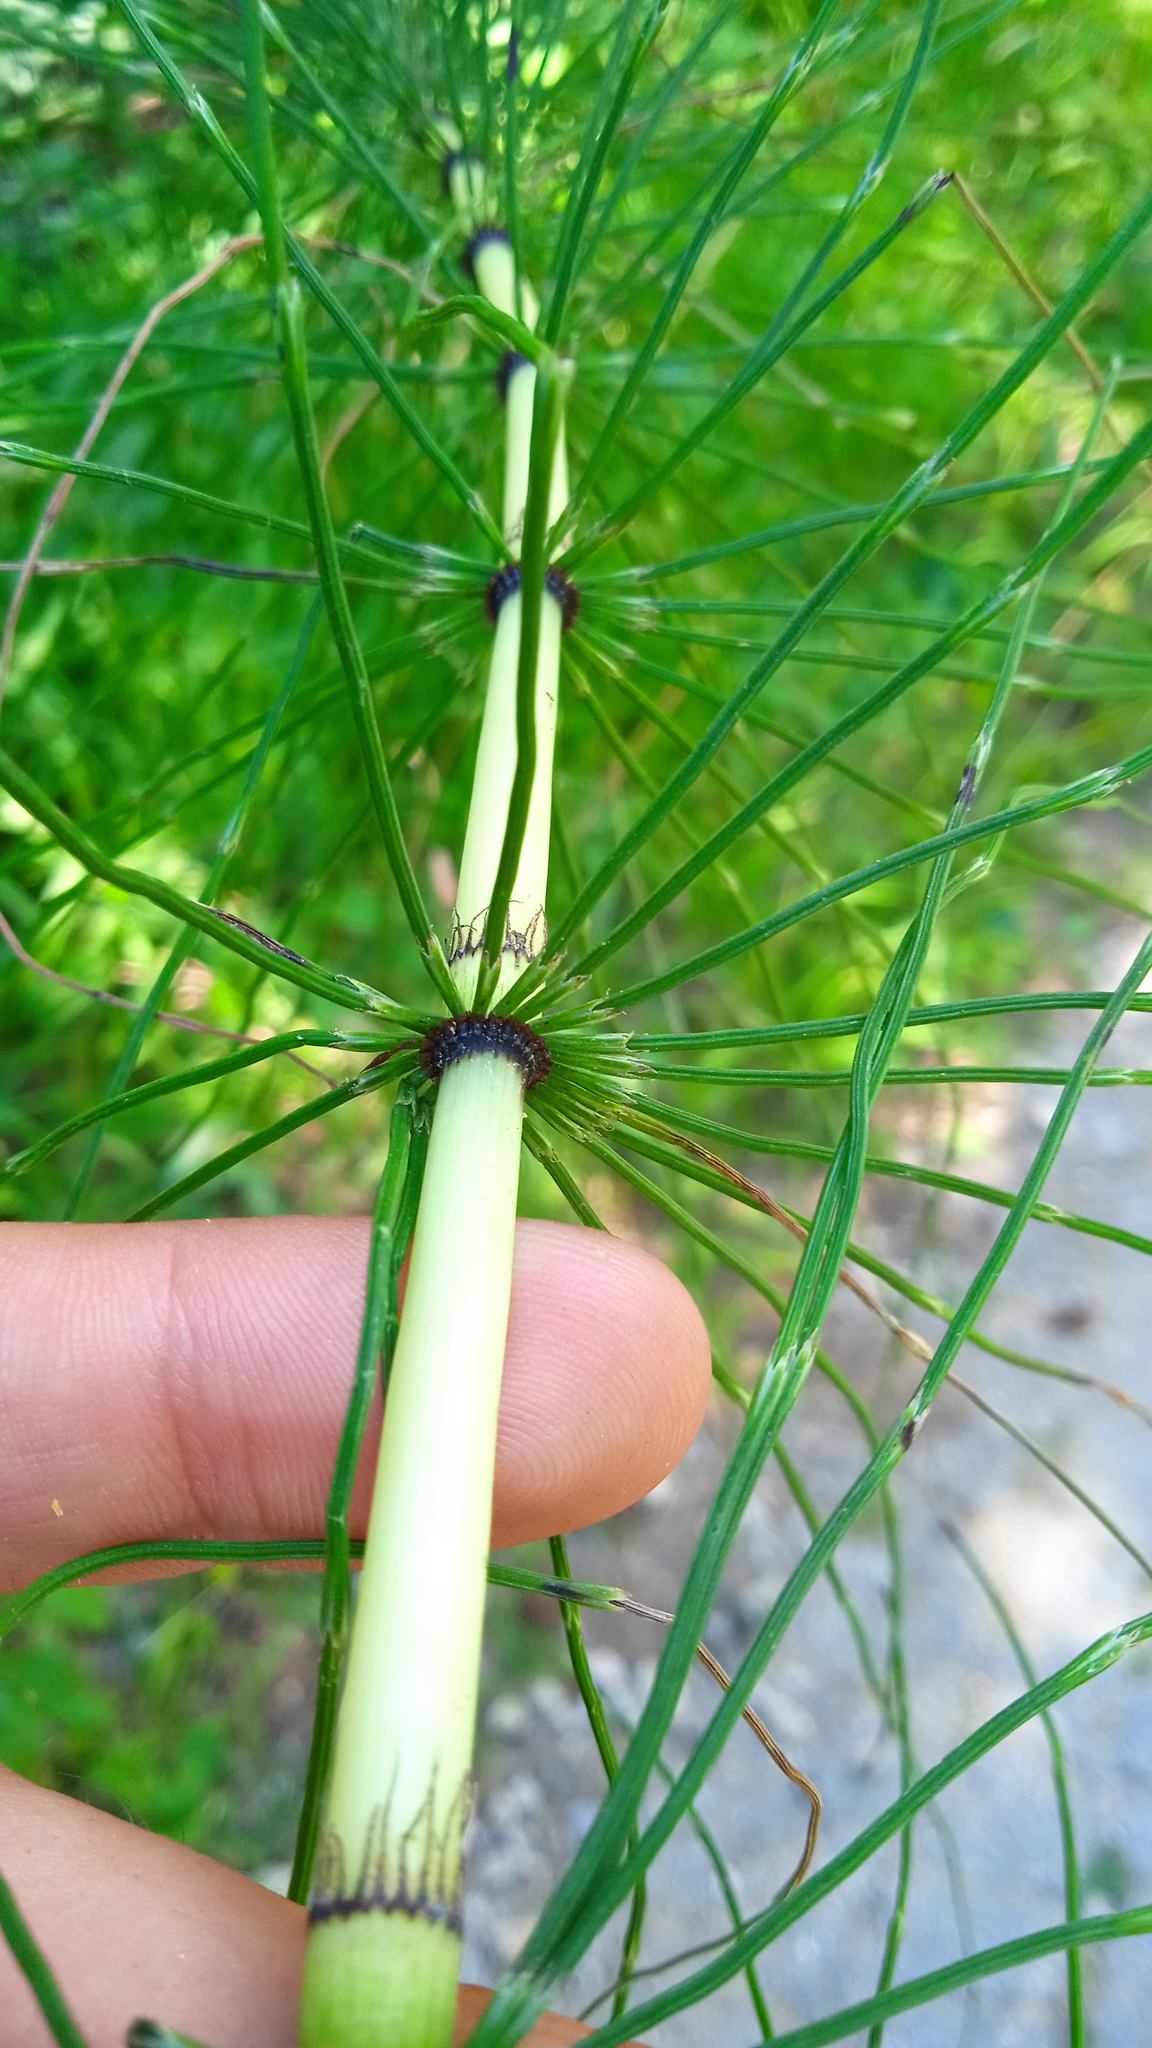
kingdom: Plantae
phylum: Tracheophyta
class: Polypodiopsida
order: Equisetales
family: Equisetaceae
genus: Equisetum
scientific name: Equisetum telmateia
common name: Great horsetail
